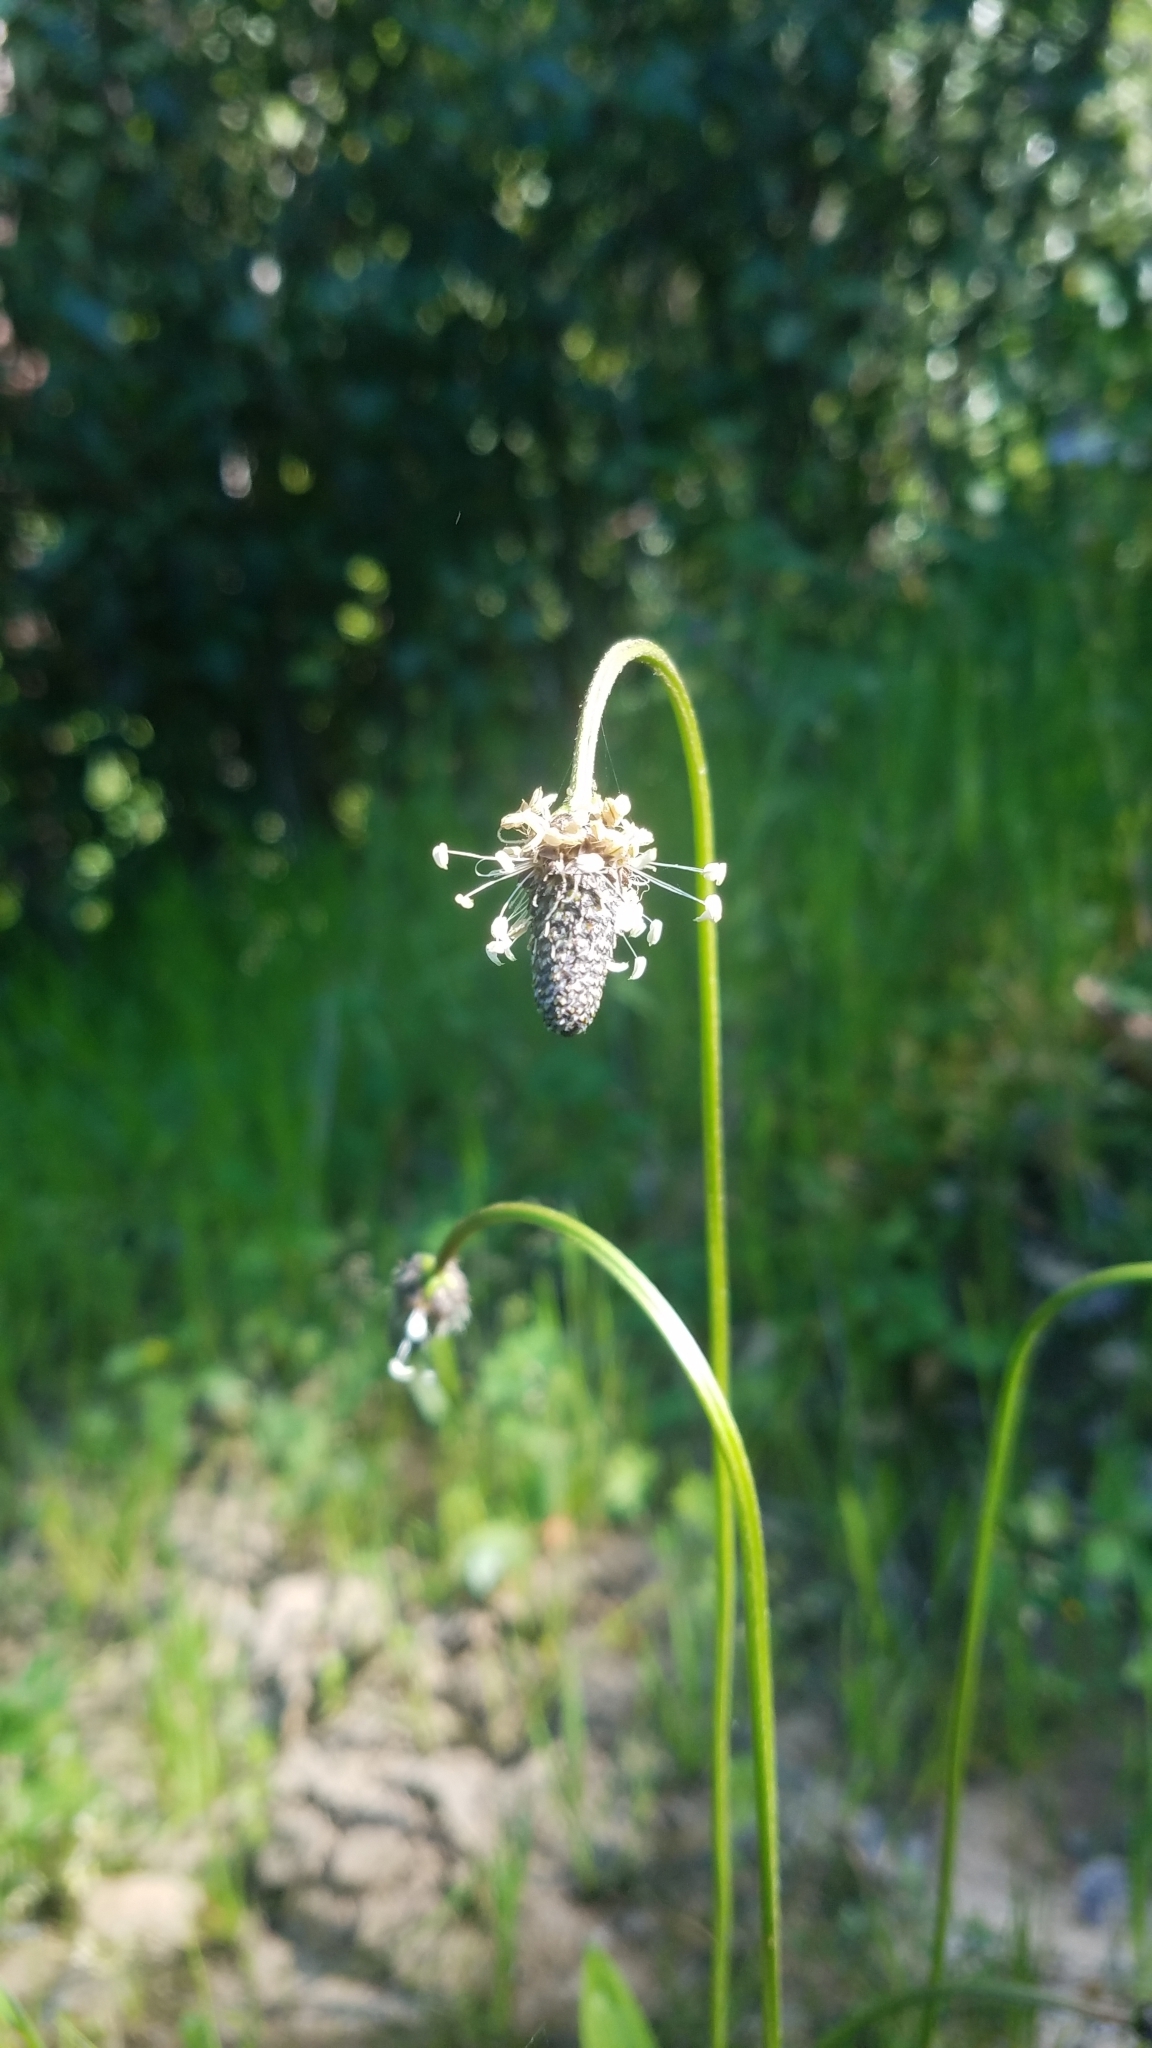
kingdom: Plantae
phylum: Tracheophyta
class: Magnoliopsida
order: Lamiales
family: Plantaginaceae
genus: Plantago
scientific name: Plantago lanceolata
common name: Ribwort plantain
